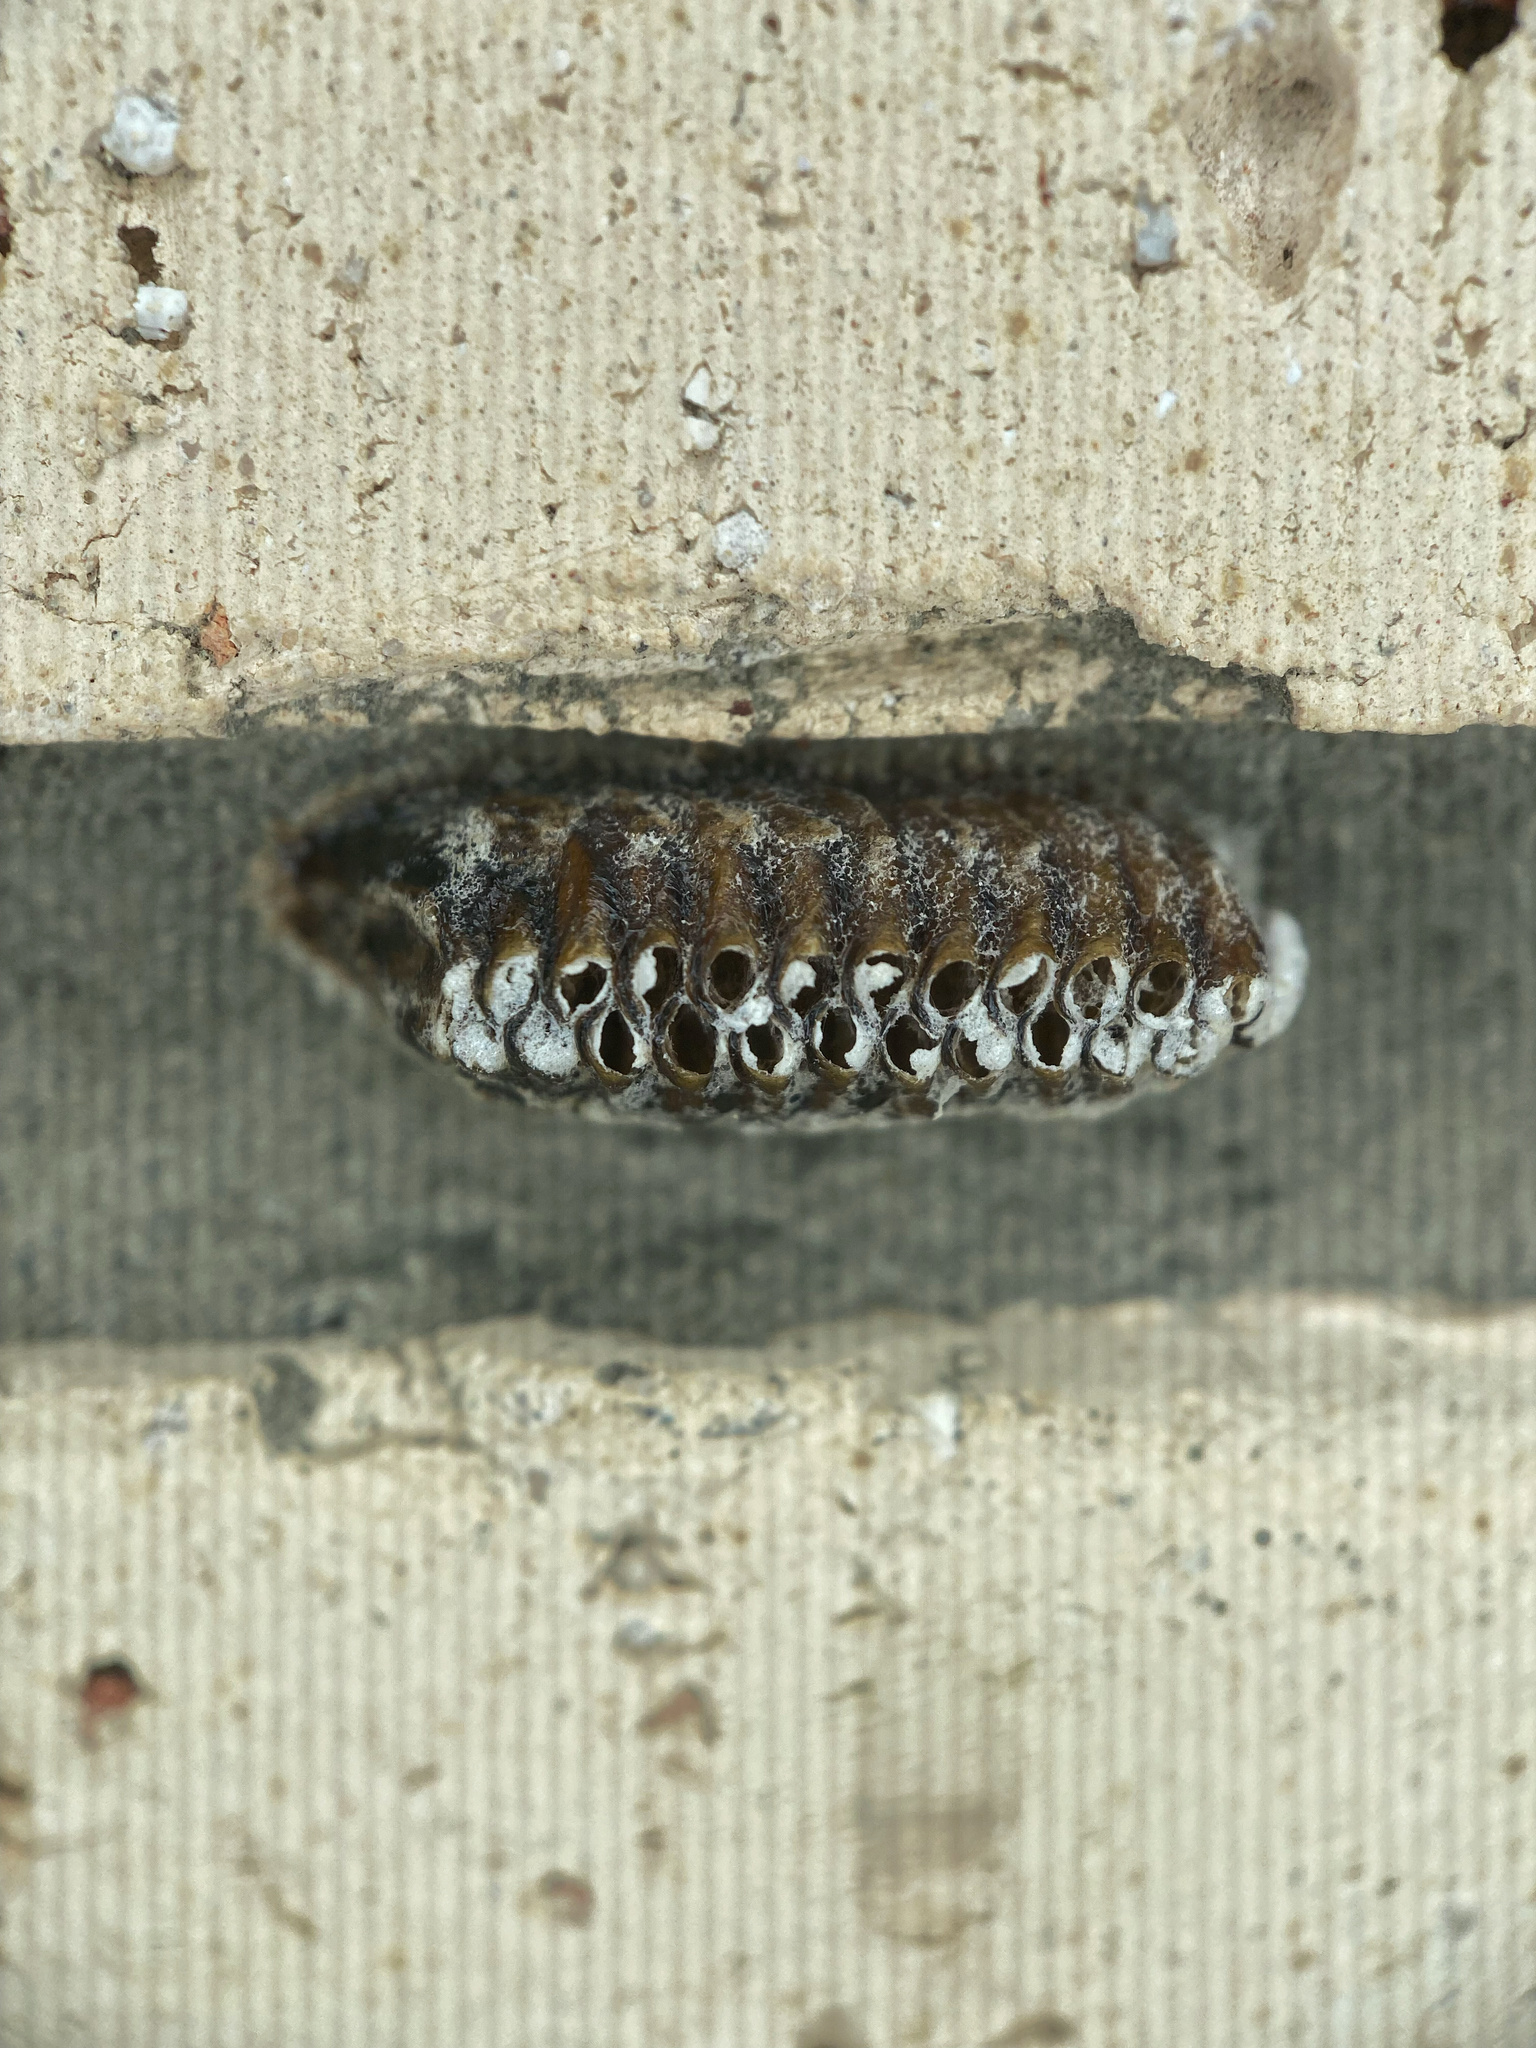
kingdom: Animalia
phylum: Arthropoda
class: Insecta
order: Mantodea
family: Mantidae
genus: Orthodera
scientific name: Orthodera novaezealandiae
